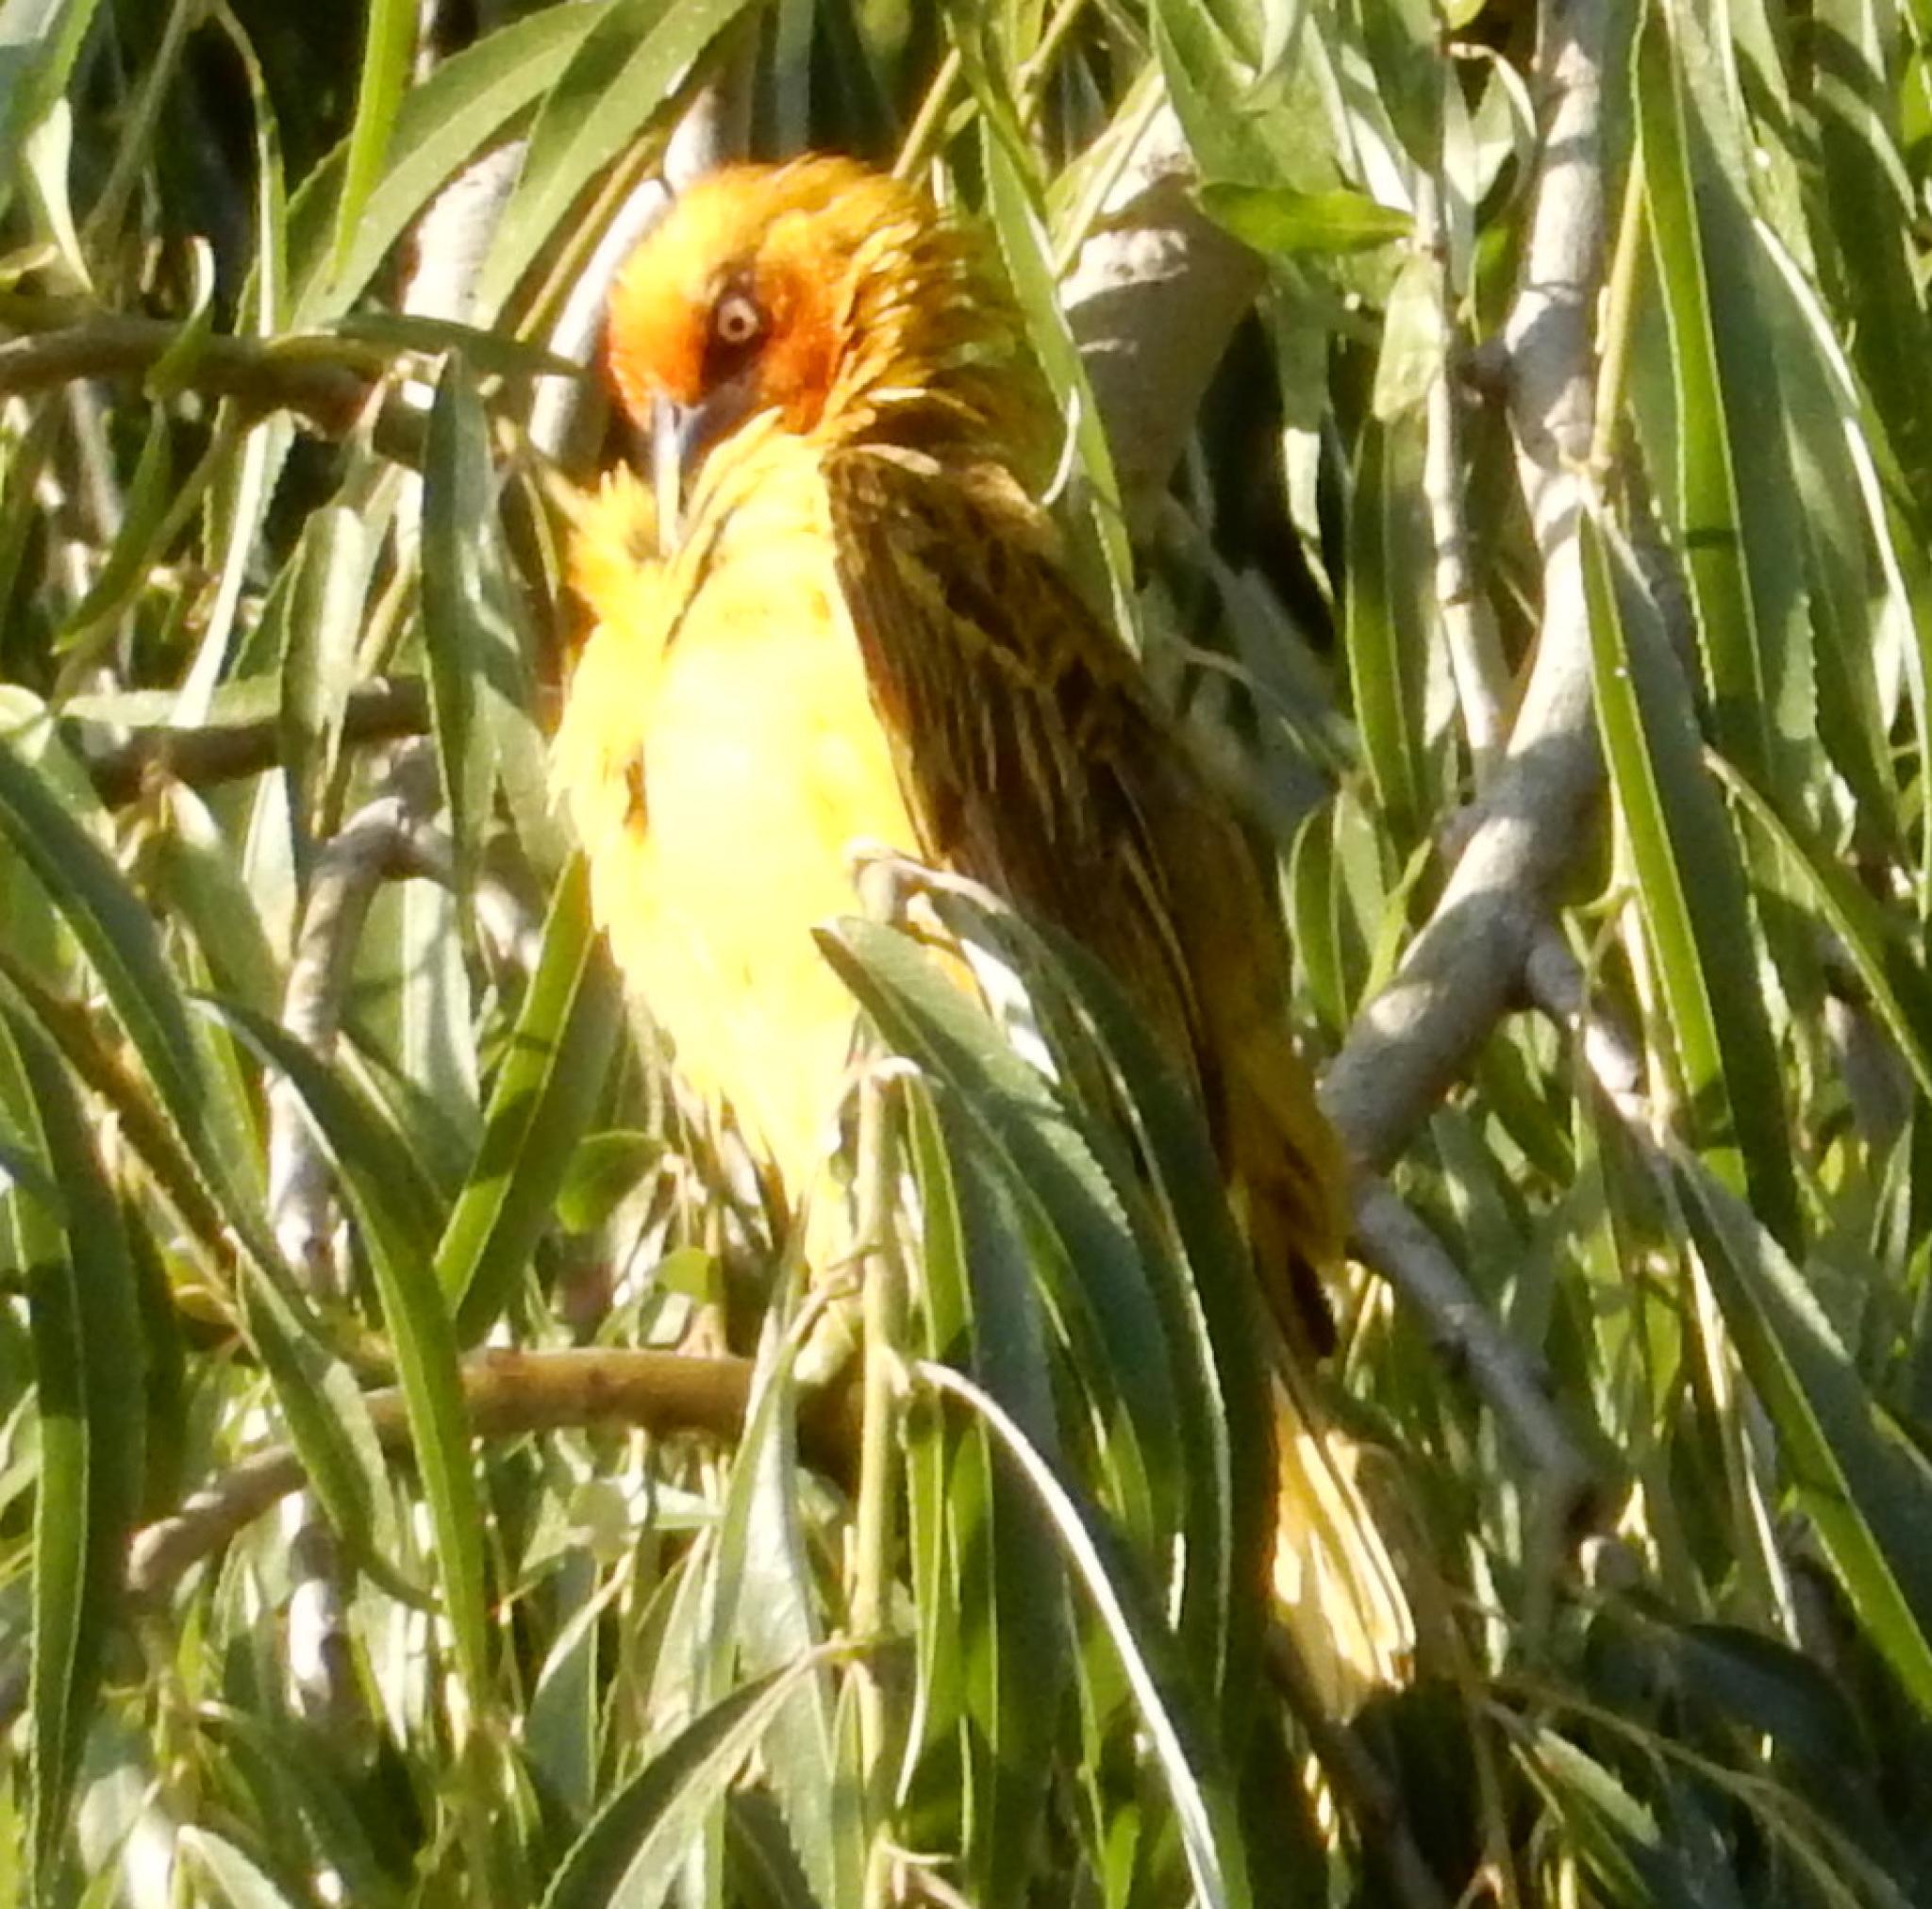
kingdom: Animalia
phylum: Chordata
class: Aves
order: Passeriformes
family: Ploceidae
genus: Ploceus
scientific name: Ploceus capensis
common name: Cape weaver
